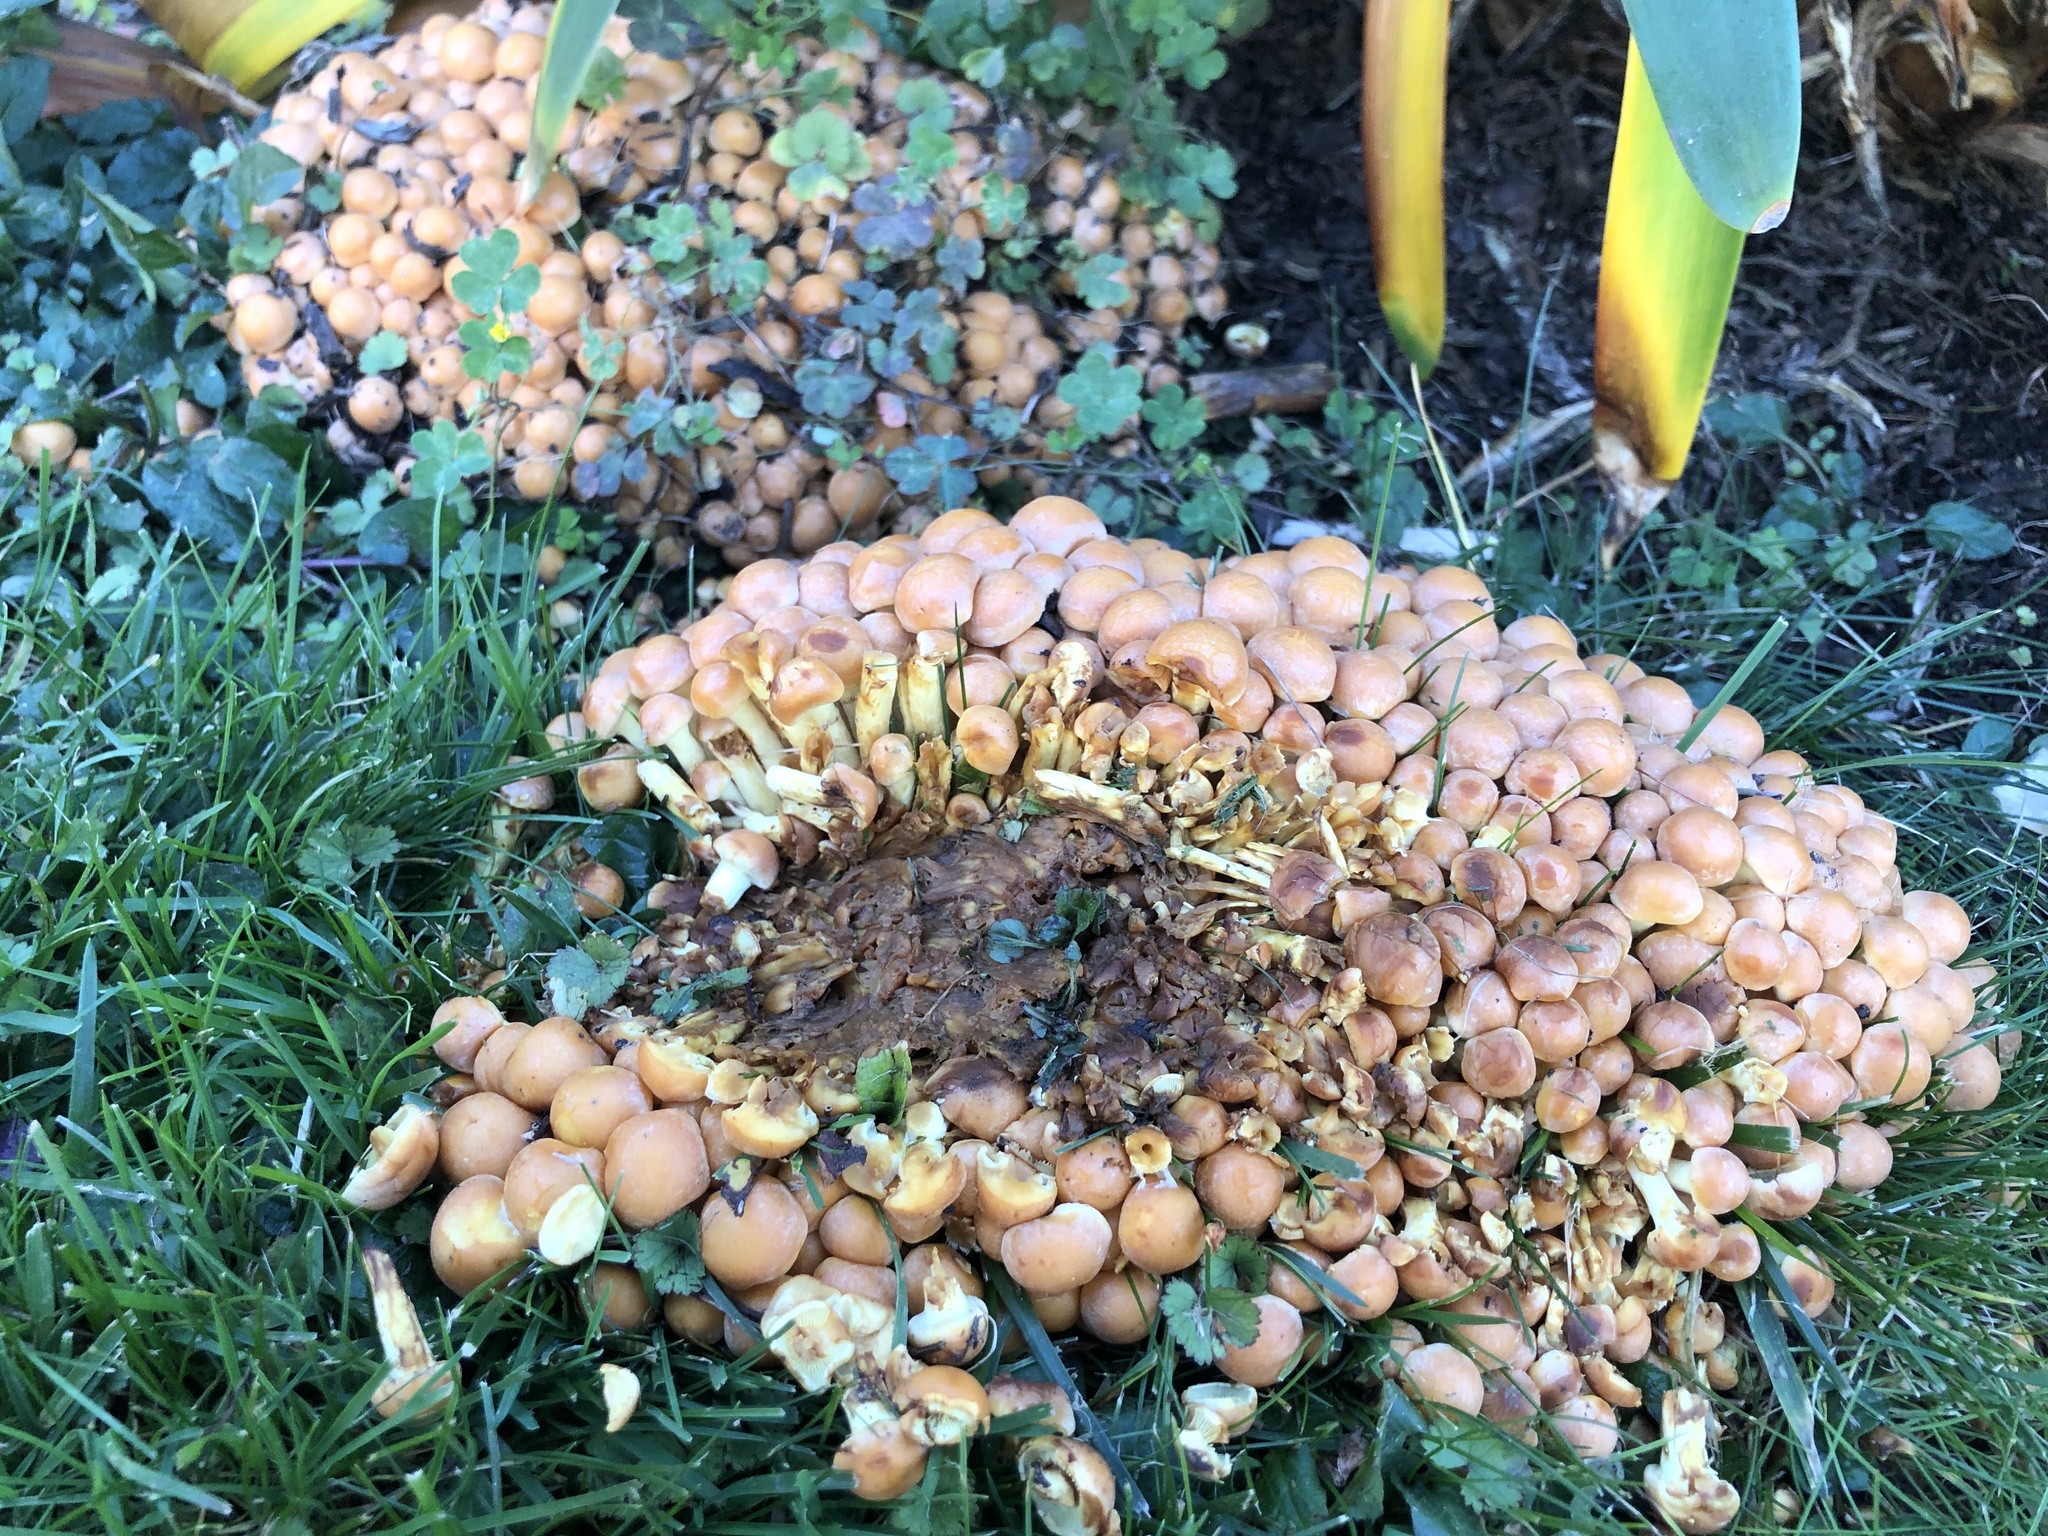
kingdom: Fungi
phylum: Basidiomycota
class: Agaricomycetes
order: Agaricales
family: Strophariaceae
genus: Hypholoma
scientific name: Hypholoma fasciculare
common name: Sulphur tuft
